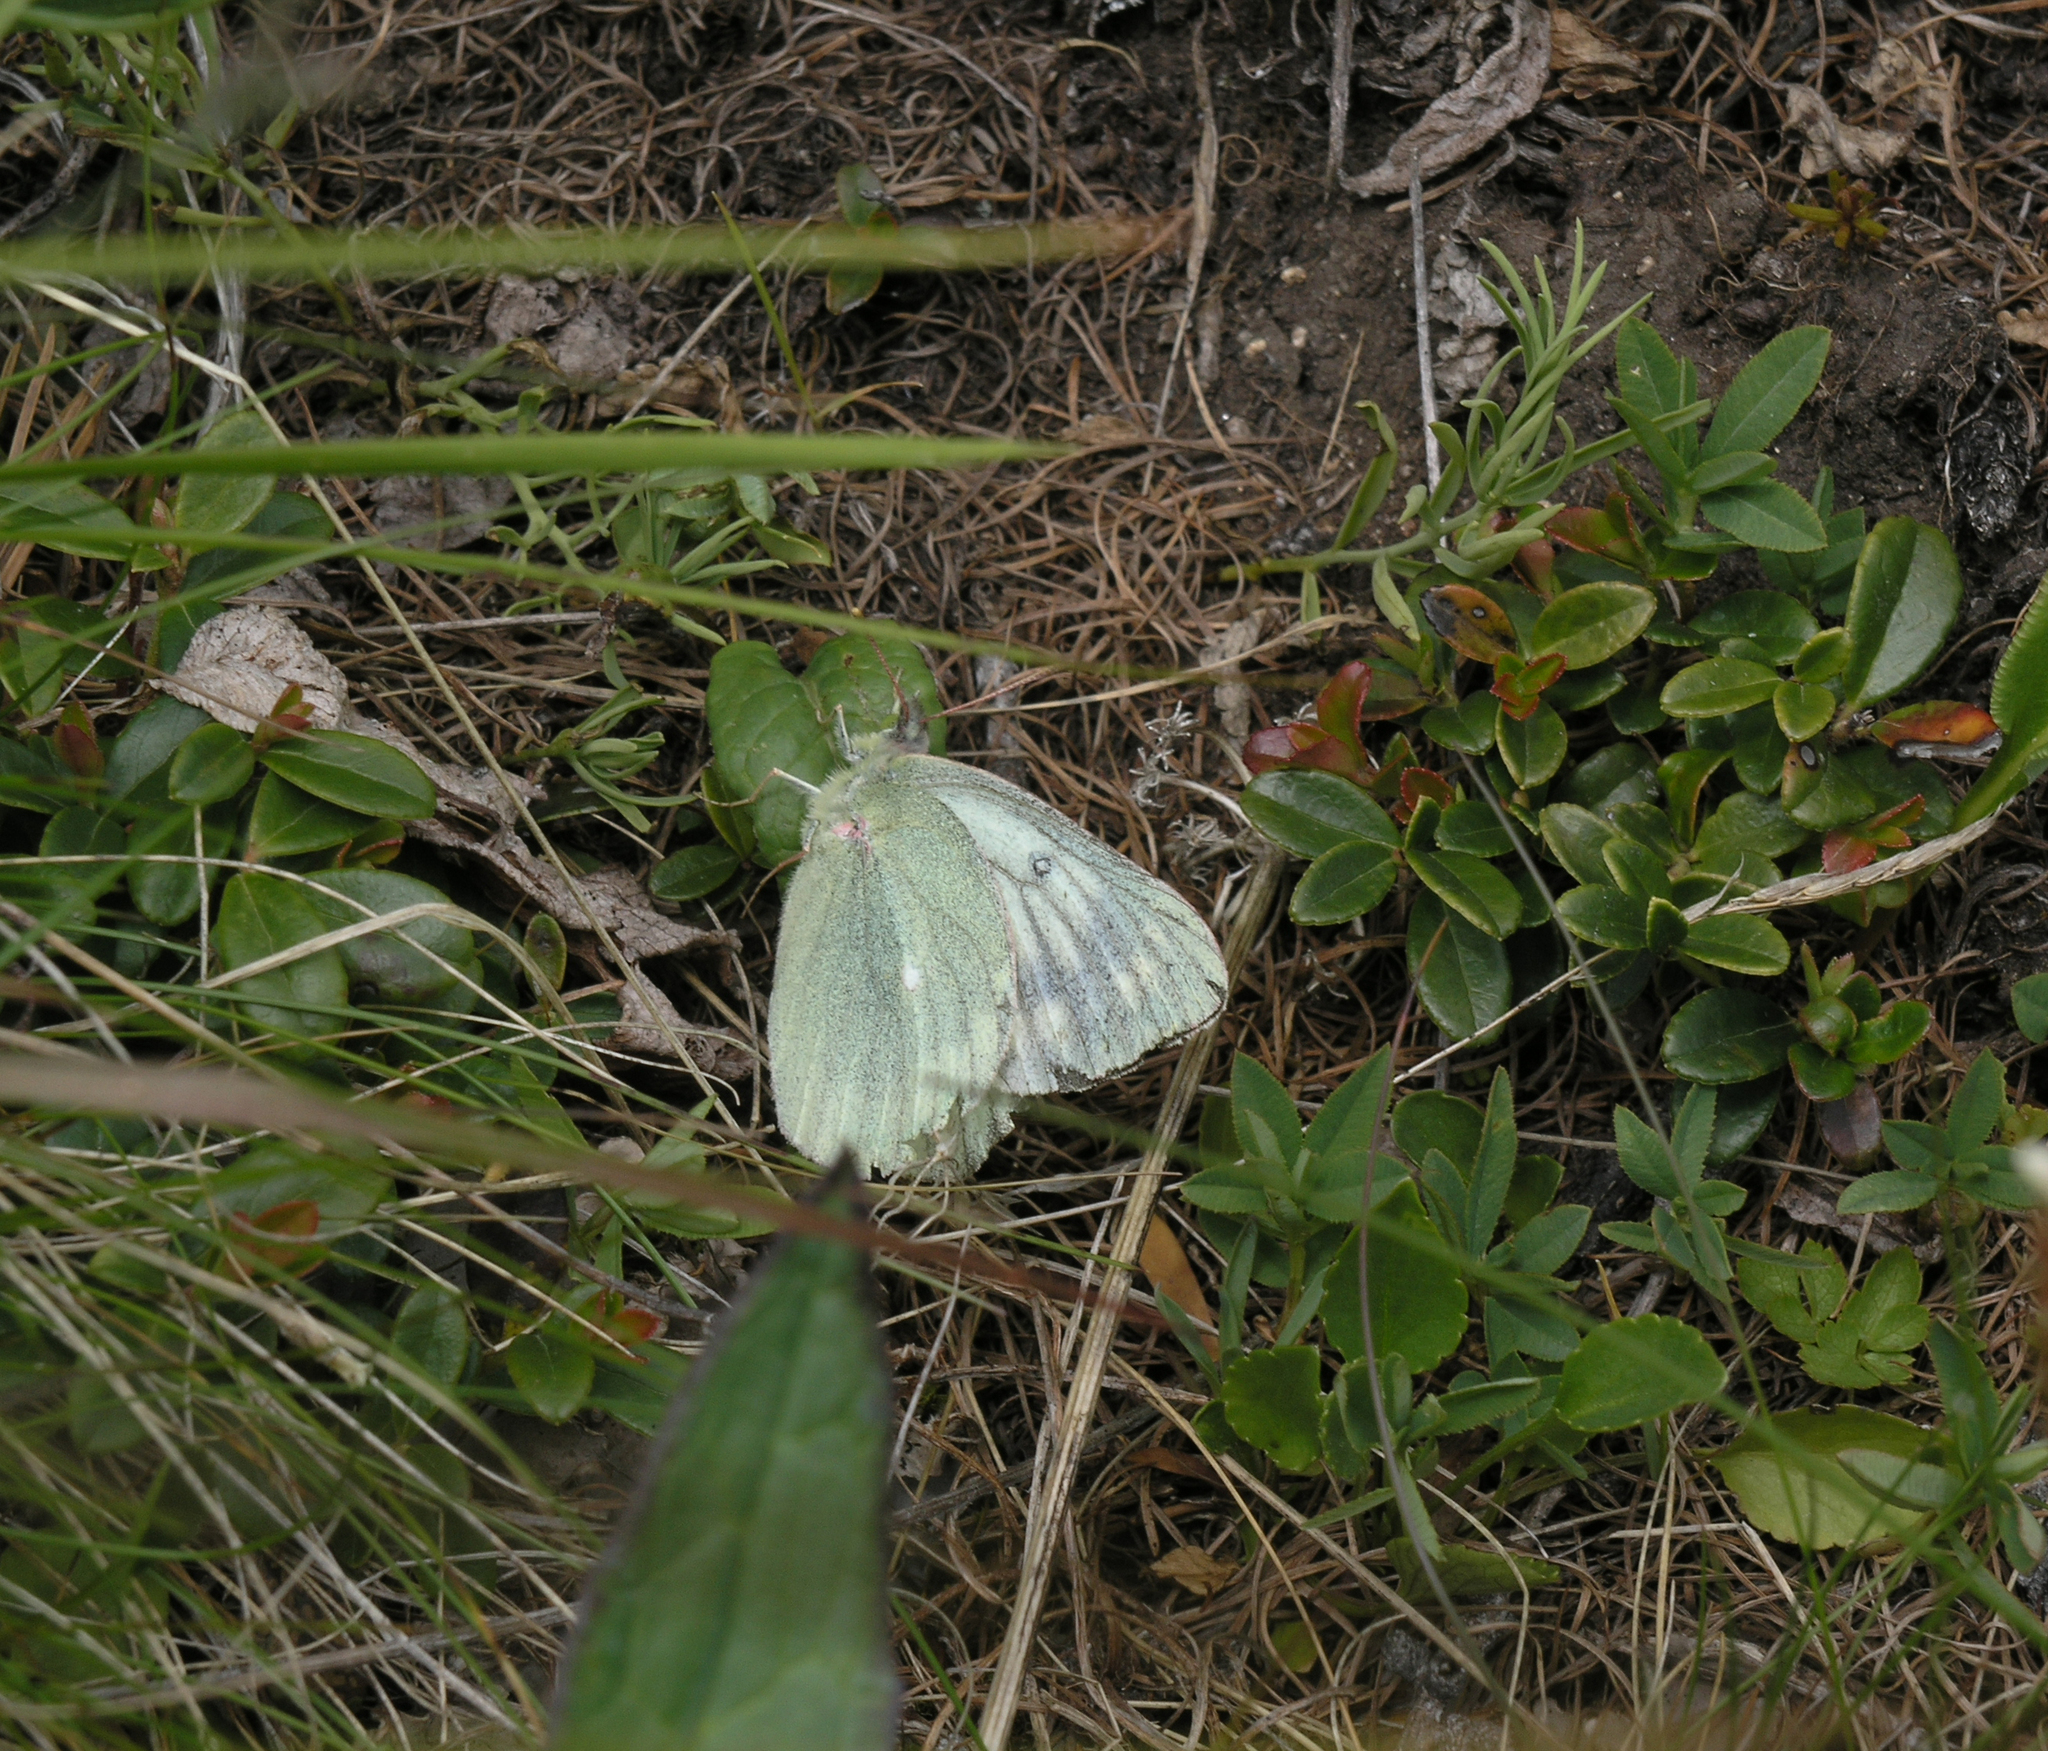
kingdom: Animalia
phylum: Arthropoda
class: Insecta
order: Lepidoptera
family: Pieridae
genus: Colias
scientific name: Colias tyche
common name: Pale arctic clouded yellow
